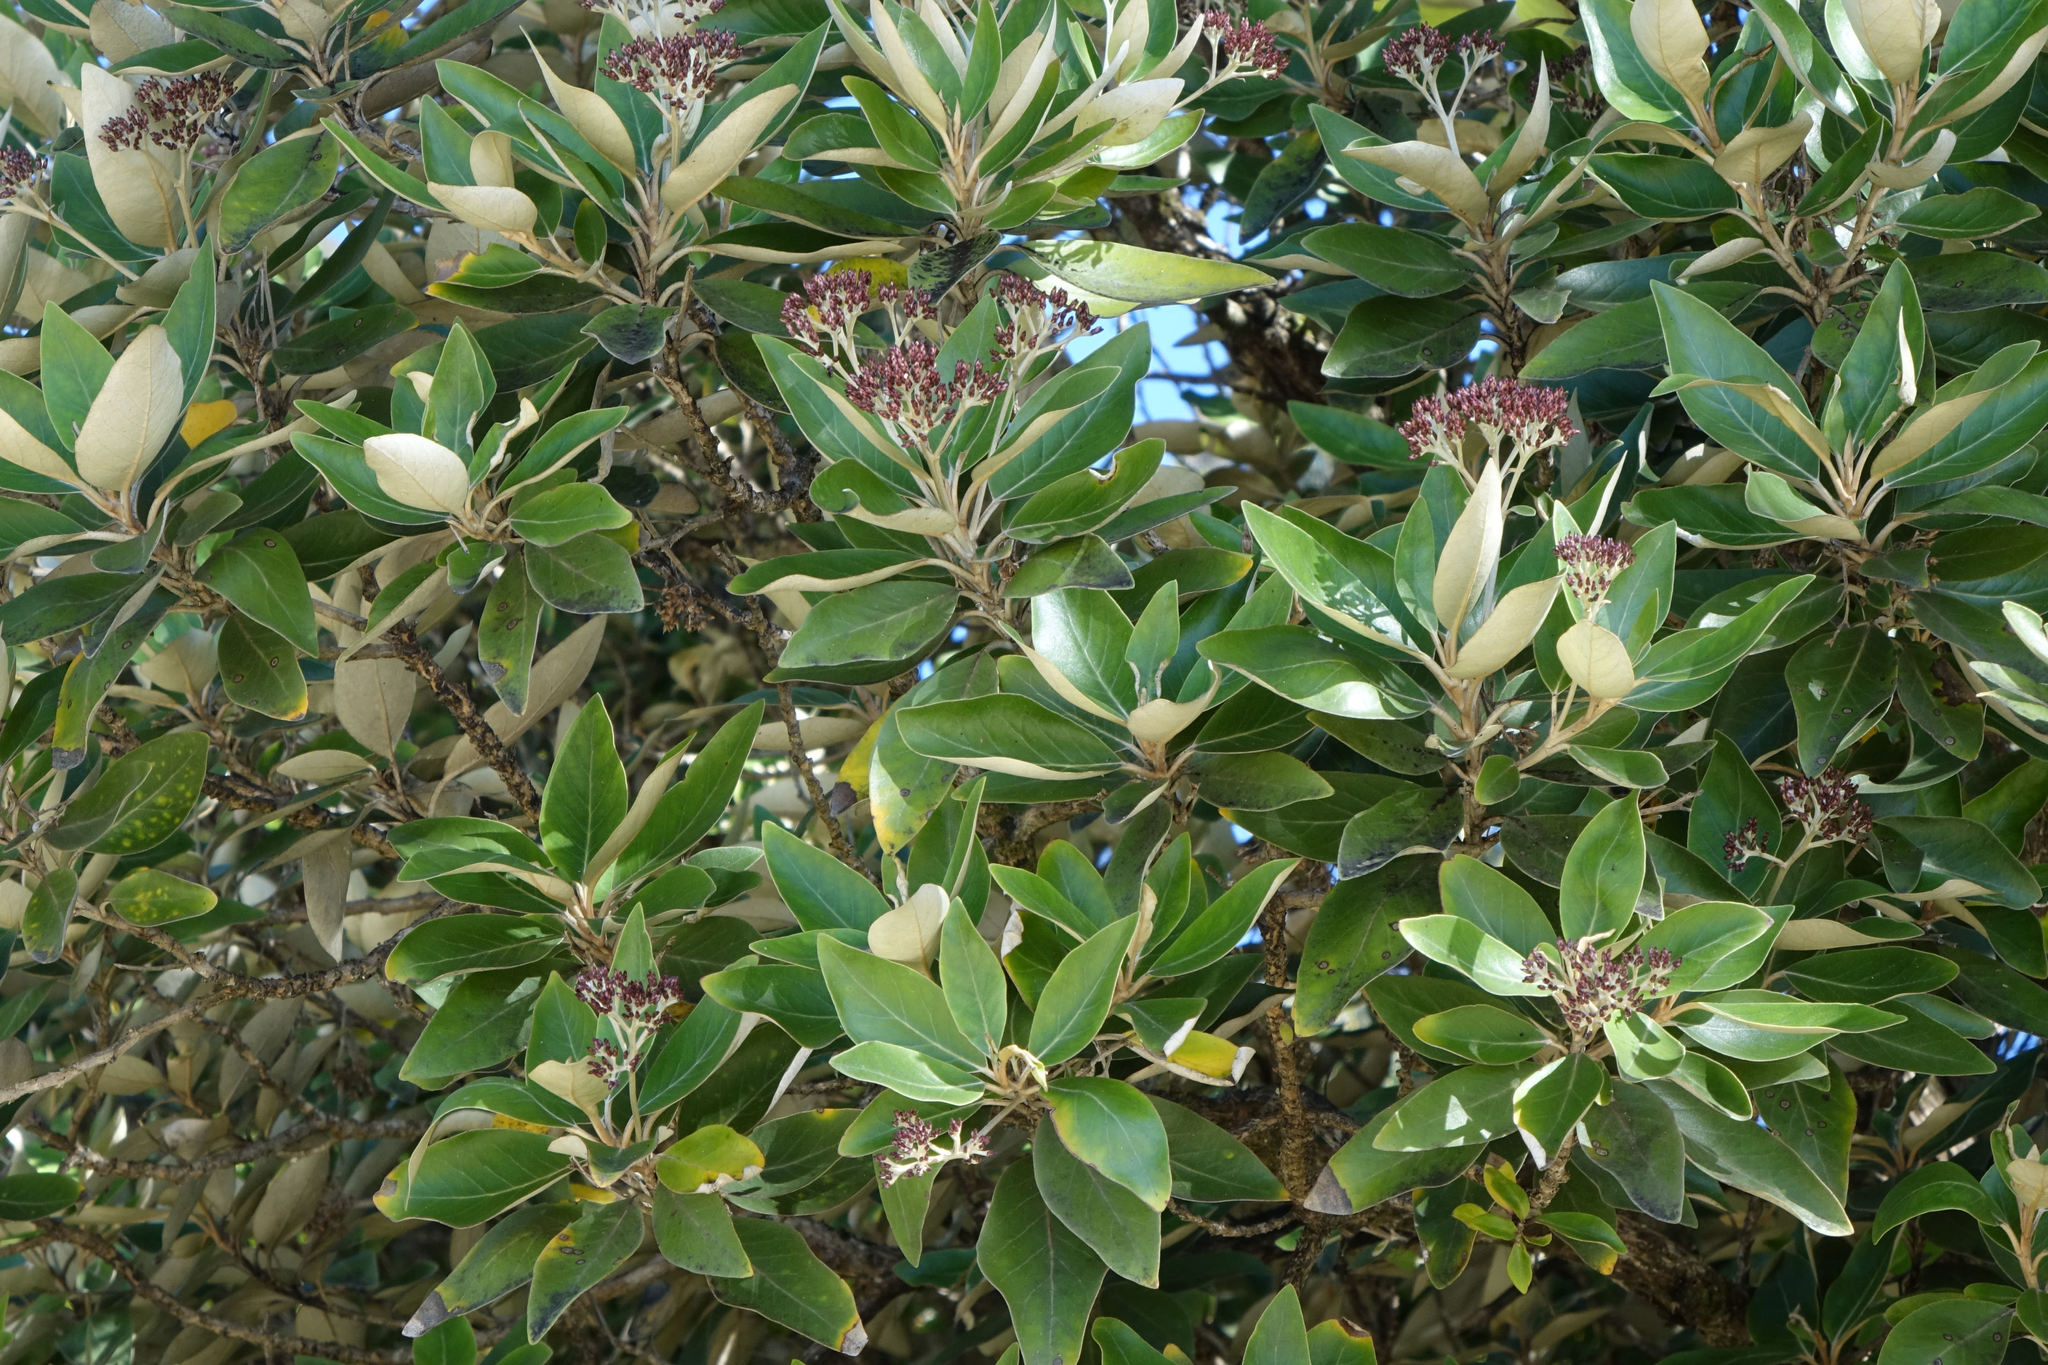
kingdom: Plantae
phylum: Tracheophyta
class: Magnoliopsida
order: Asterales
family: Asteraceae
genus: Olearia
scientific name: Olearia avicenniifolia
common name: Mangrove-leaf daisybush
